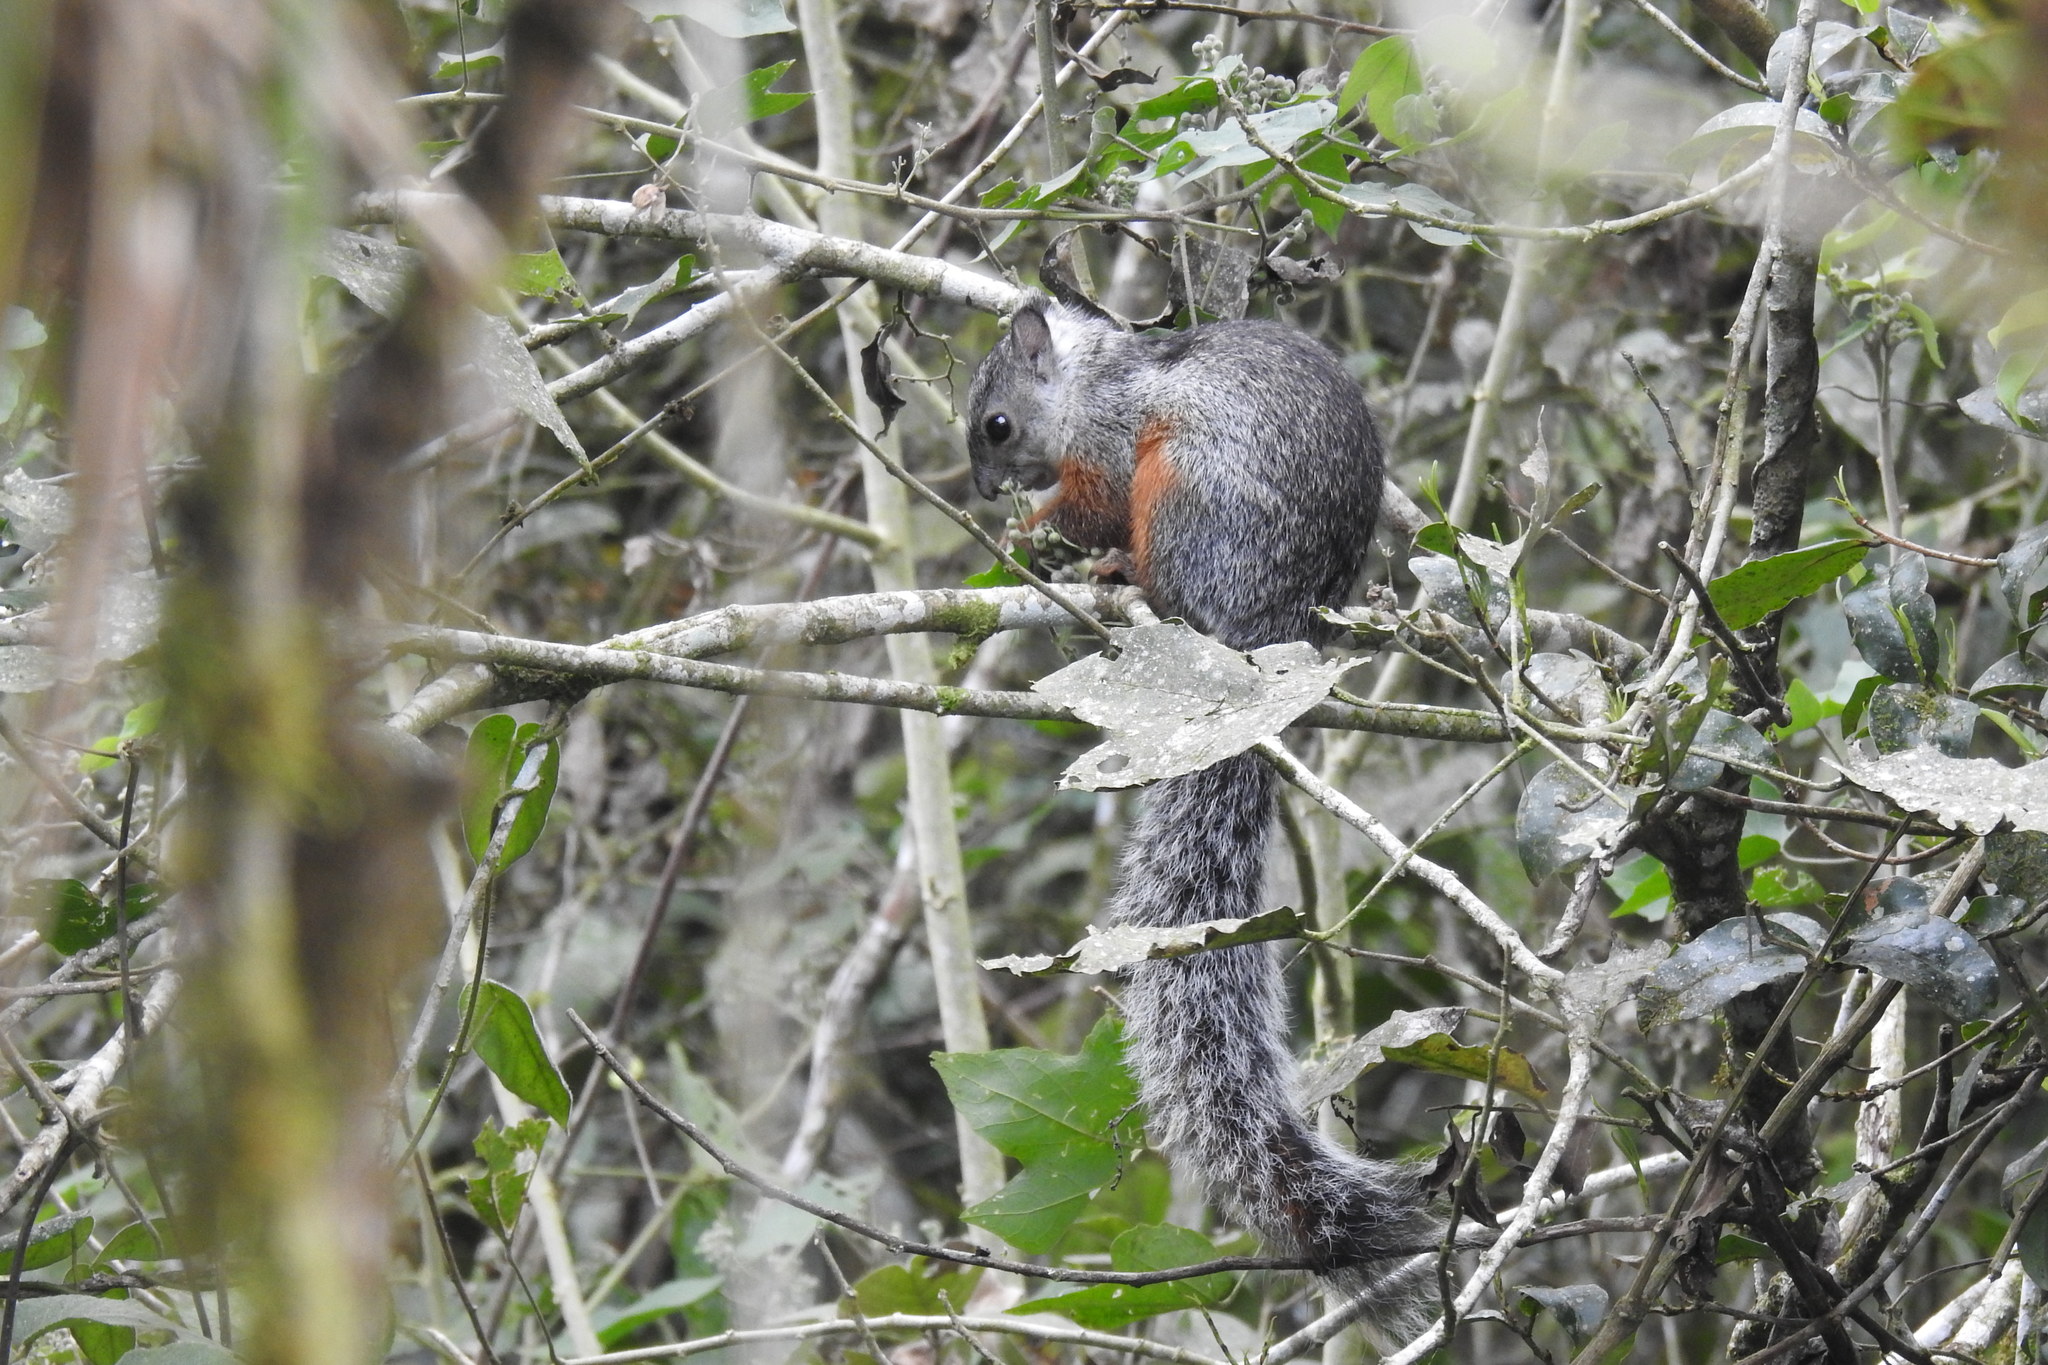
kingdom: Animalia
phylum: Chordata
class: Mammalia
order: Rodentia
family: Sciuridae
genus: Sciurus
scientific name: Sciurus variegatoides
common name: Variegated squirrel
